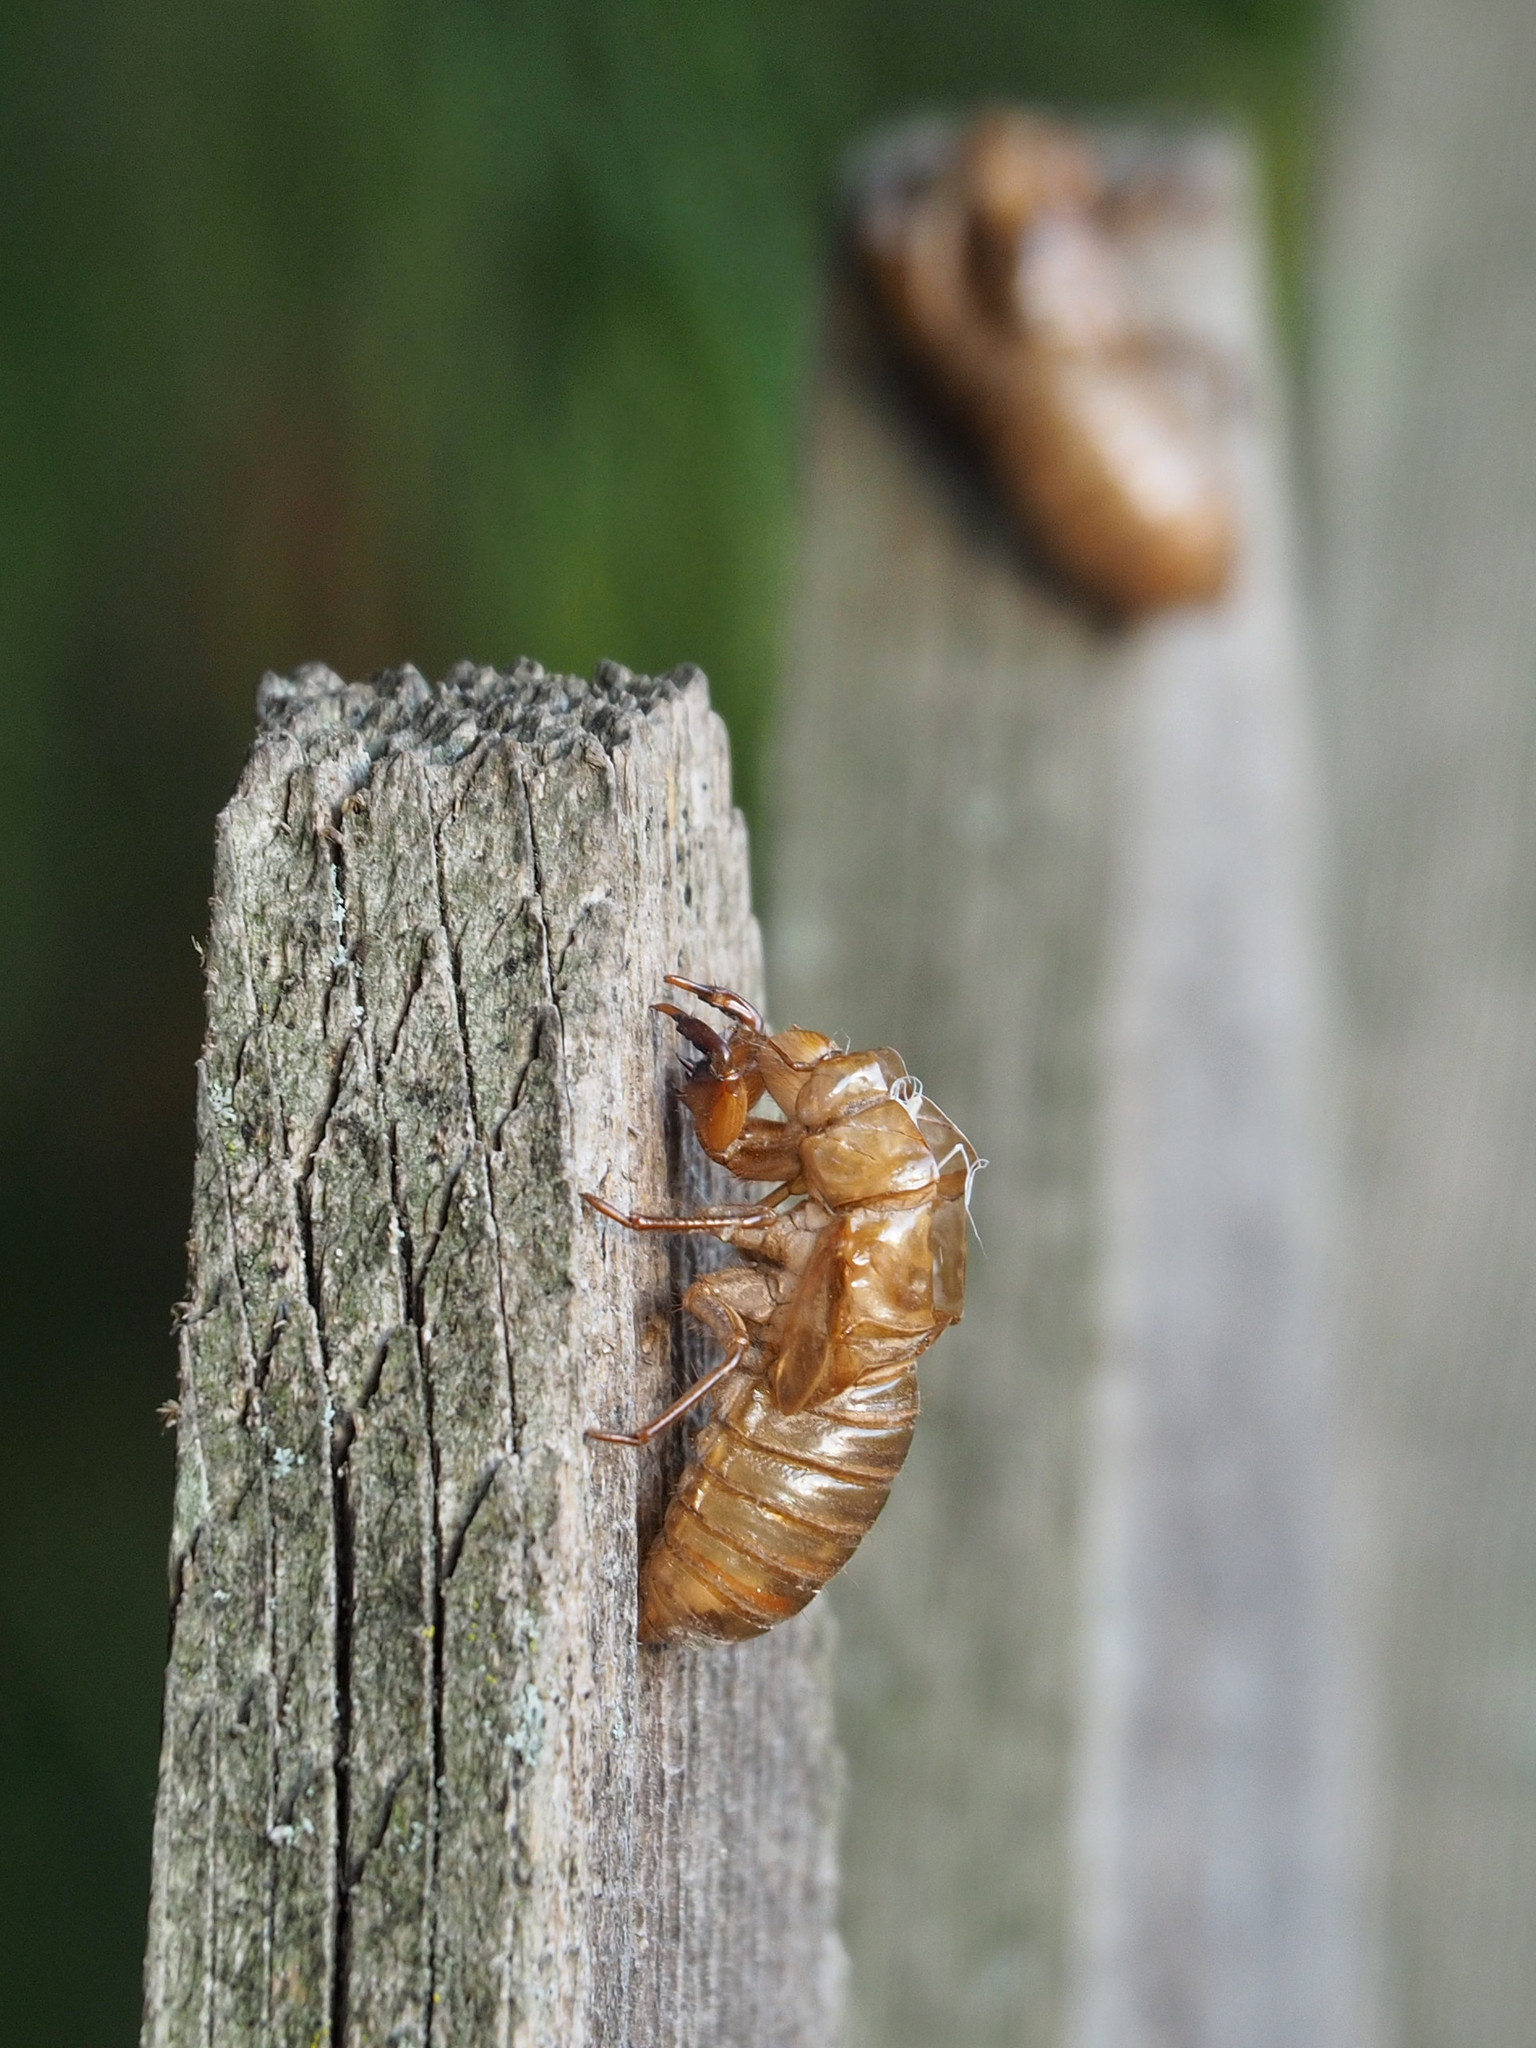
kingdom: Animalia
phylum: Arthropoda
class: Insecta
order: Hemiptera
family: Cicadidae
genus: Magicicada
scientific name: Magicicada
